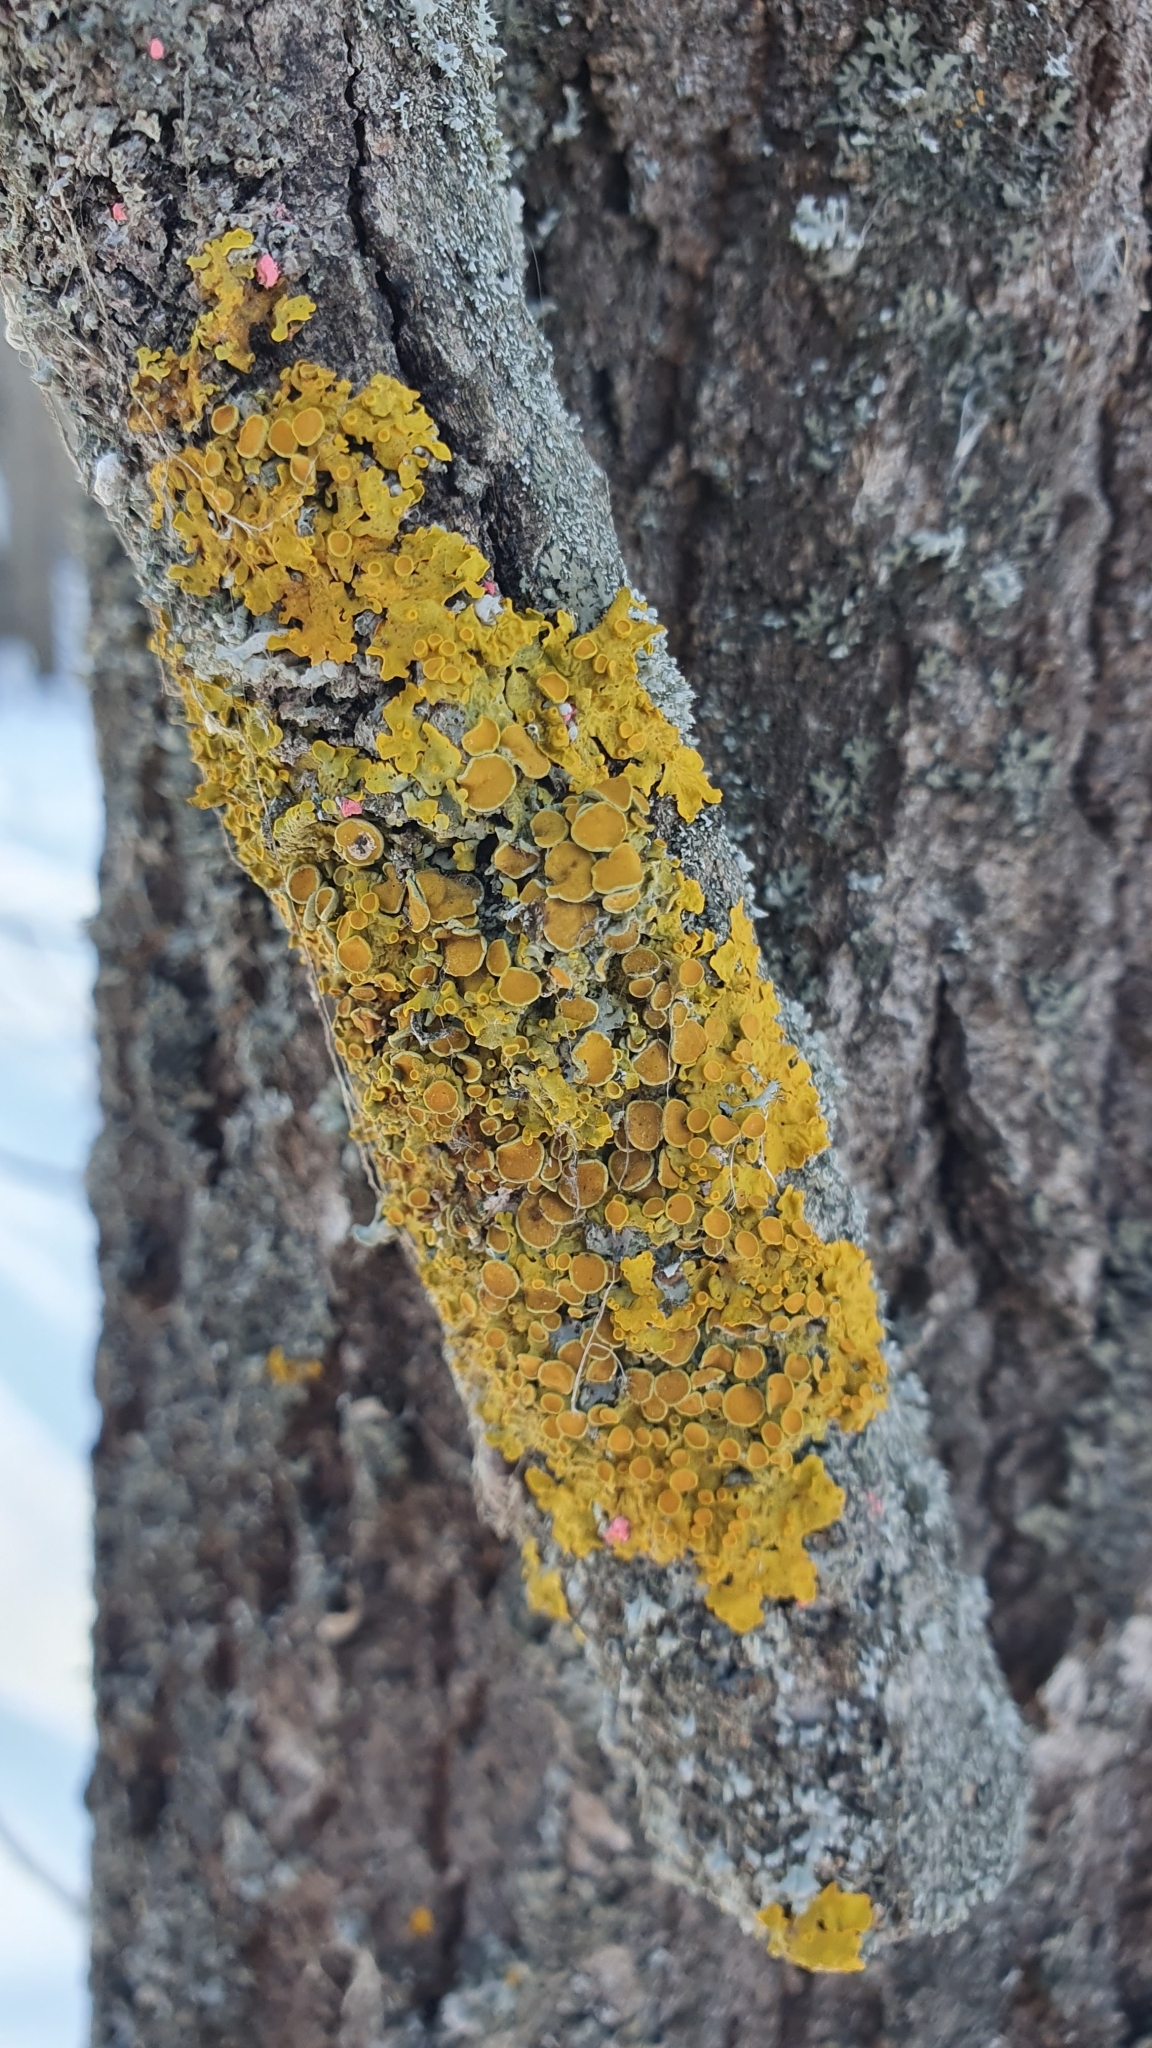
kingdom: Fungi
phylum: Ascomycota
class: Lecanoromycetes
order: Teloschistales
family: Teloschistaceae
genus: Xanthoria
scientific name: Xanthoria parietina
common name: Common orange lichen
